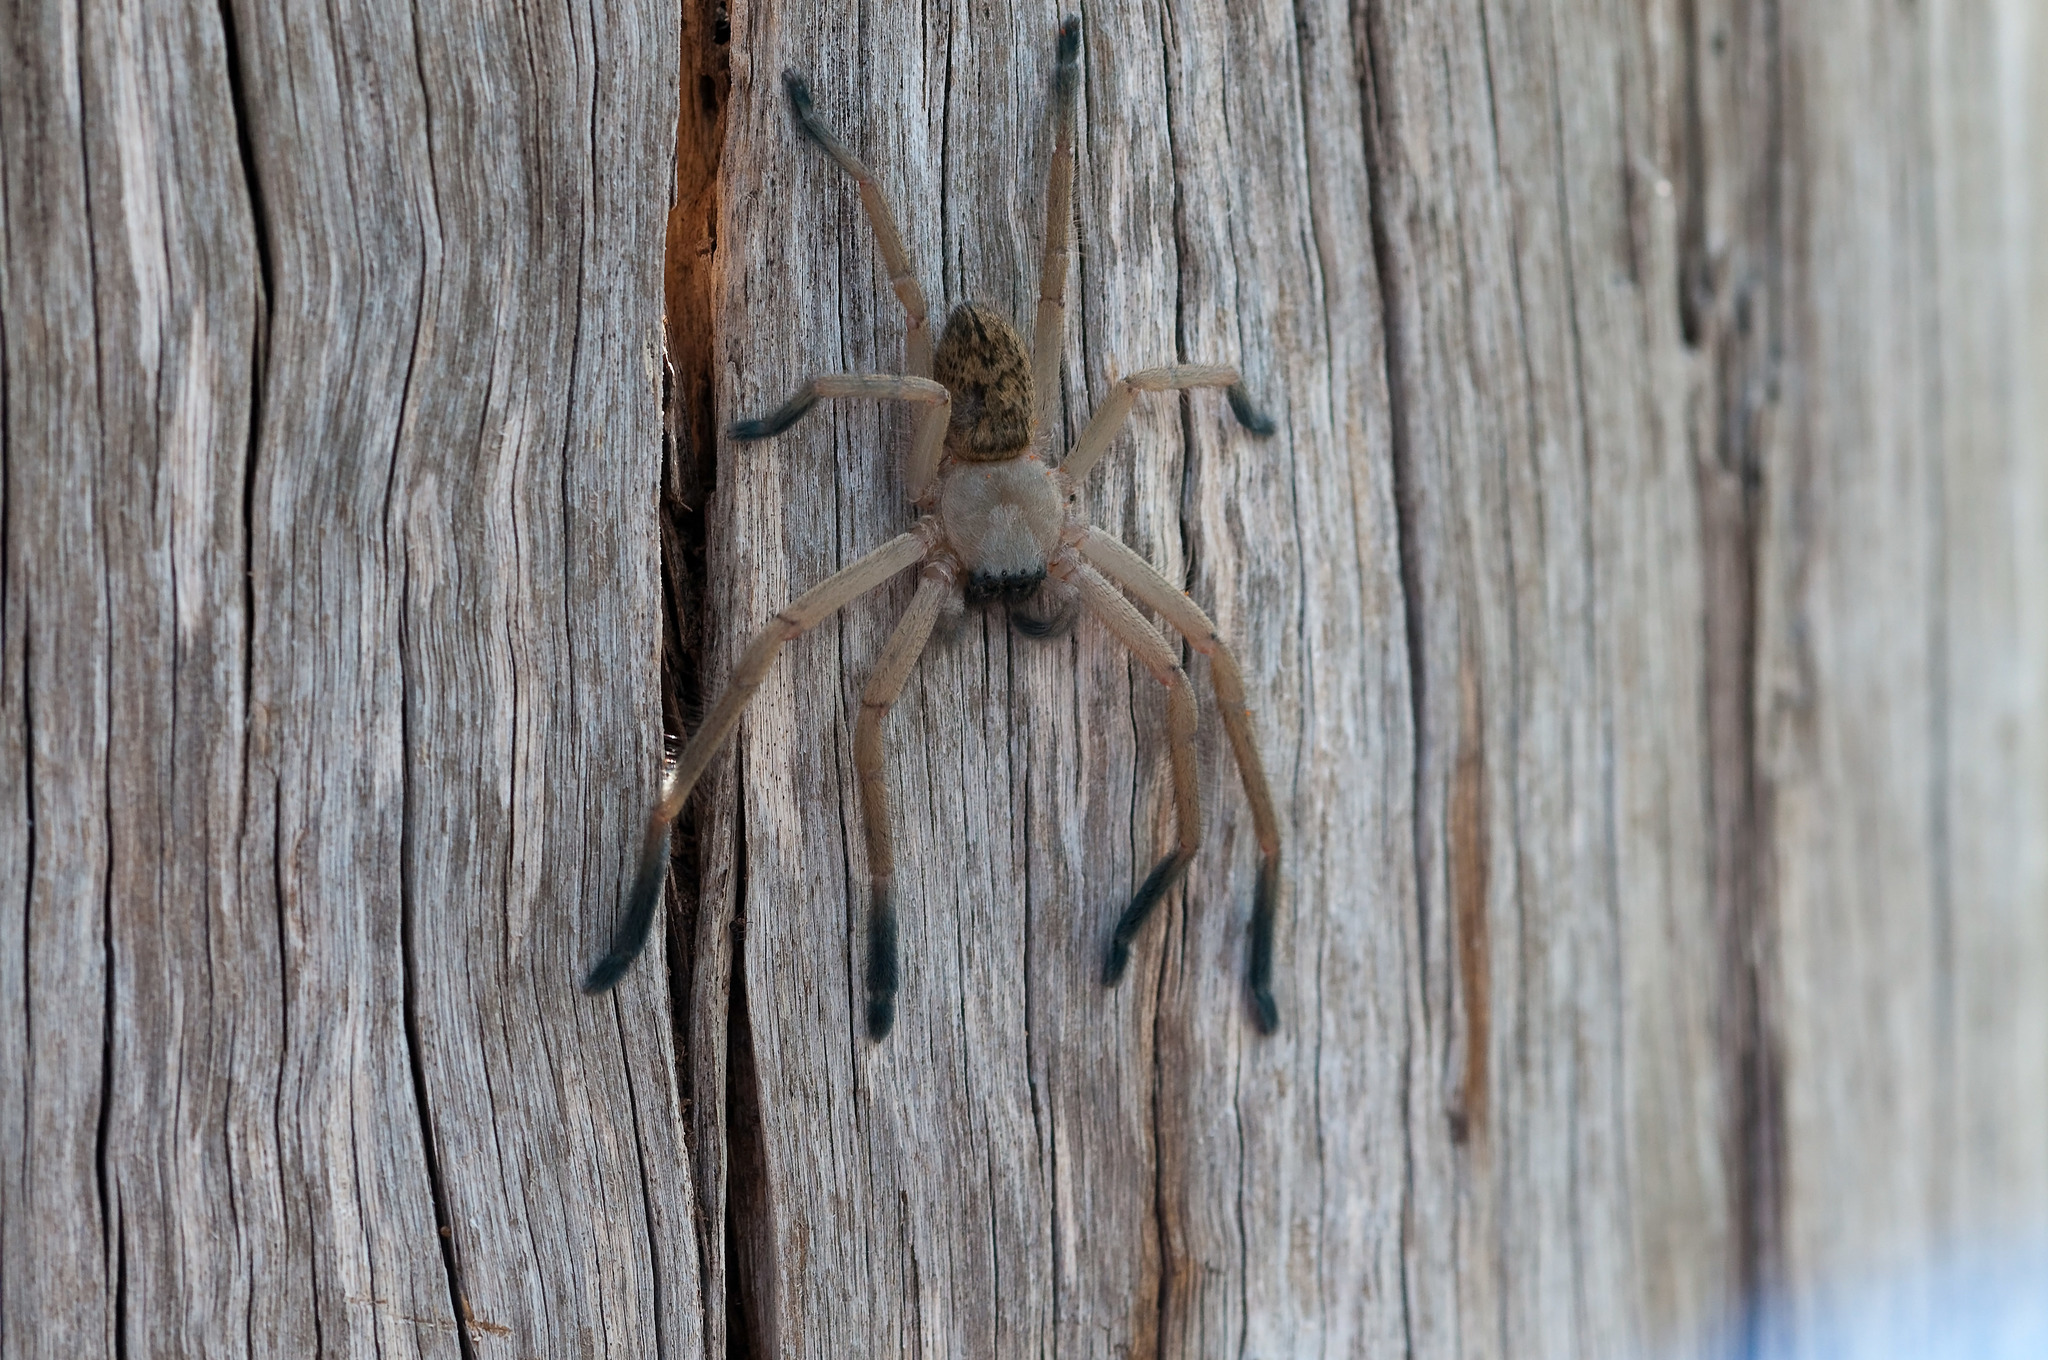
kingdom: Animalia
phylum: Arthropoda
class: Arachnida
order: Araneae
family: Sparassidae
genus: Delena
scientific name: Delena cancerides
